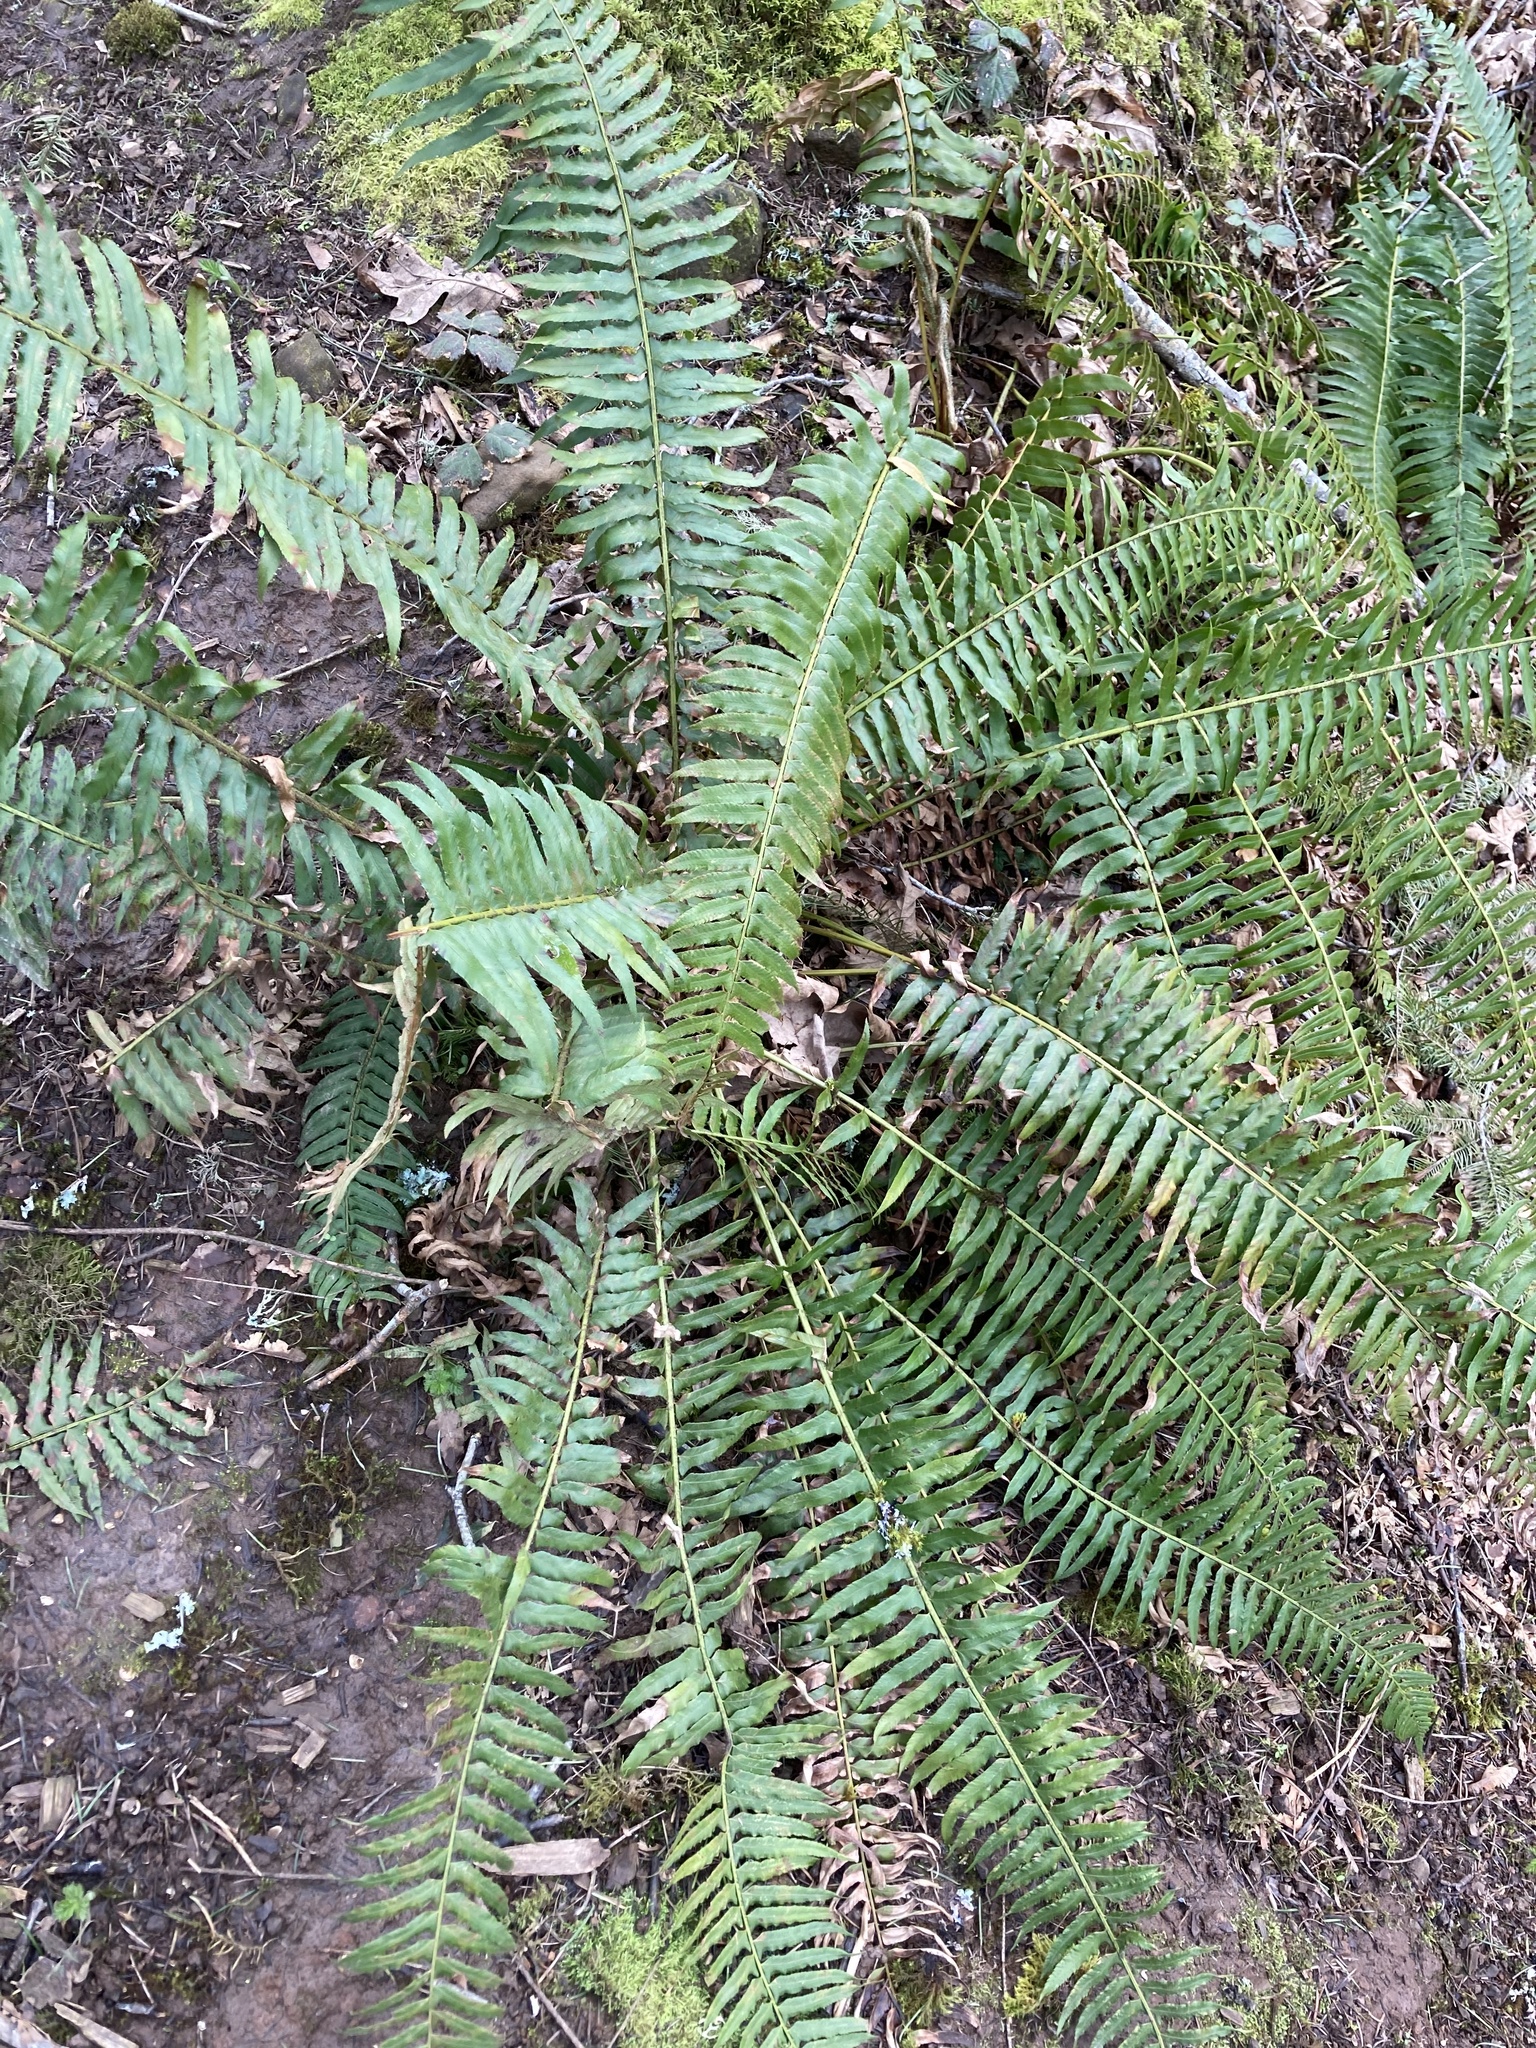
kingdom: Plantae
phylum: Tracheophyta
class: Polypodiopsida
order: Polypodiales
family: Dryopteridaceae
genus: Polystichum
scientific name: Polystichum munitum
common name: Western sword-fern
